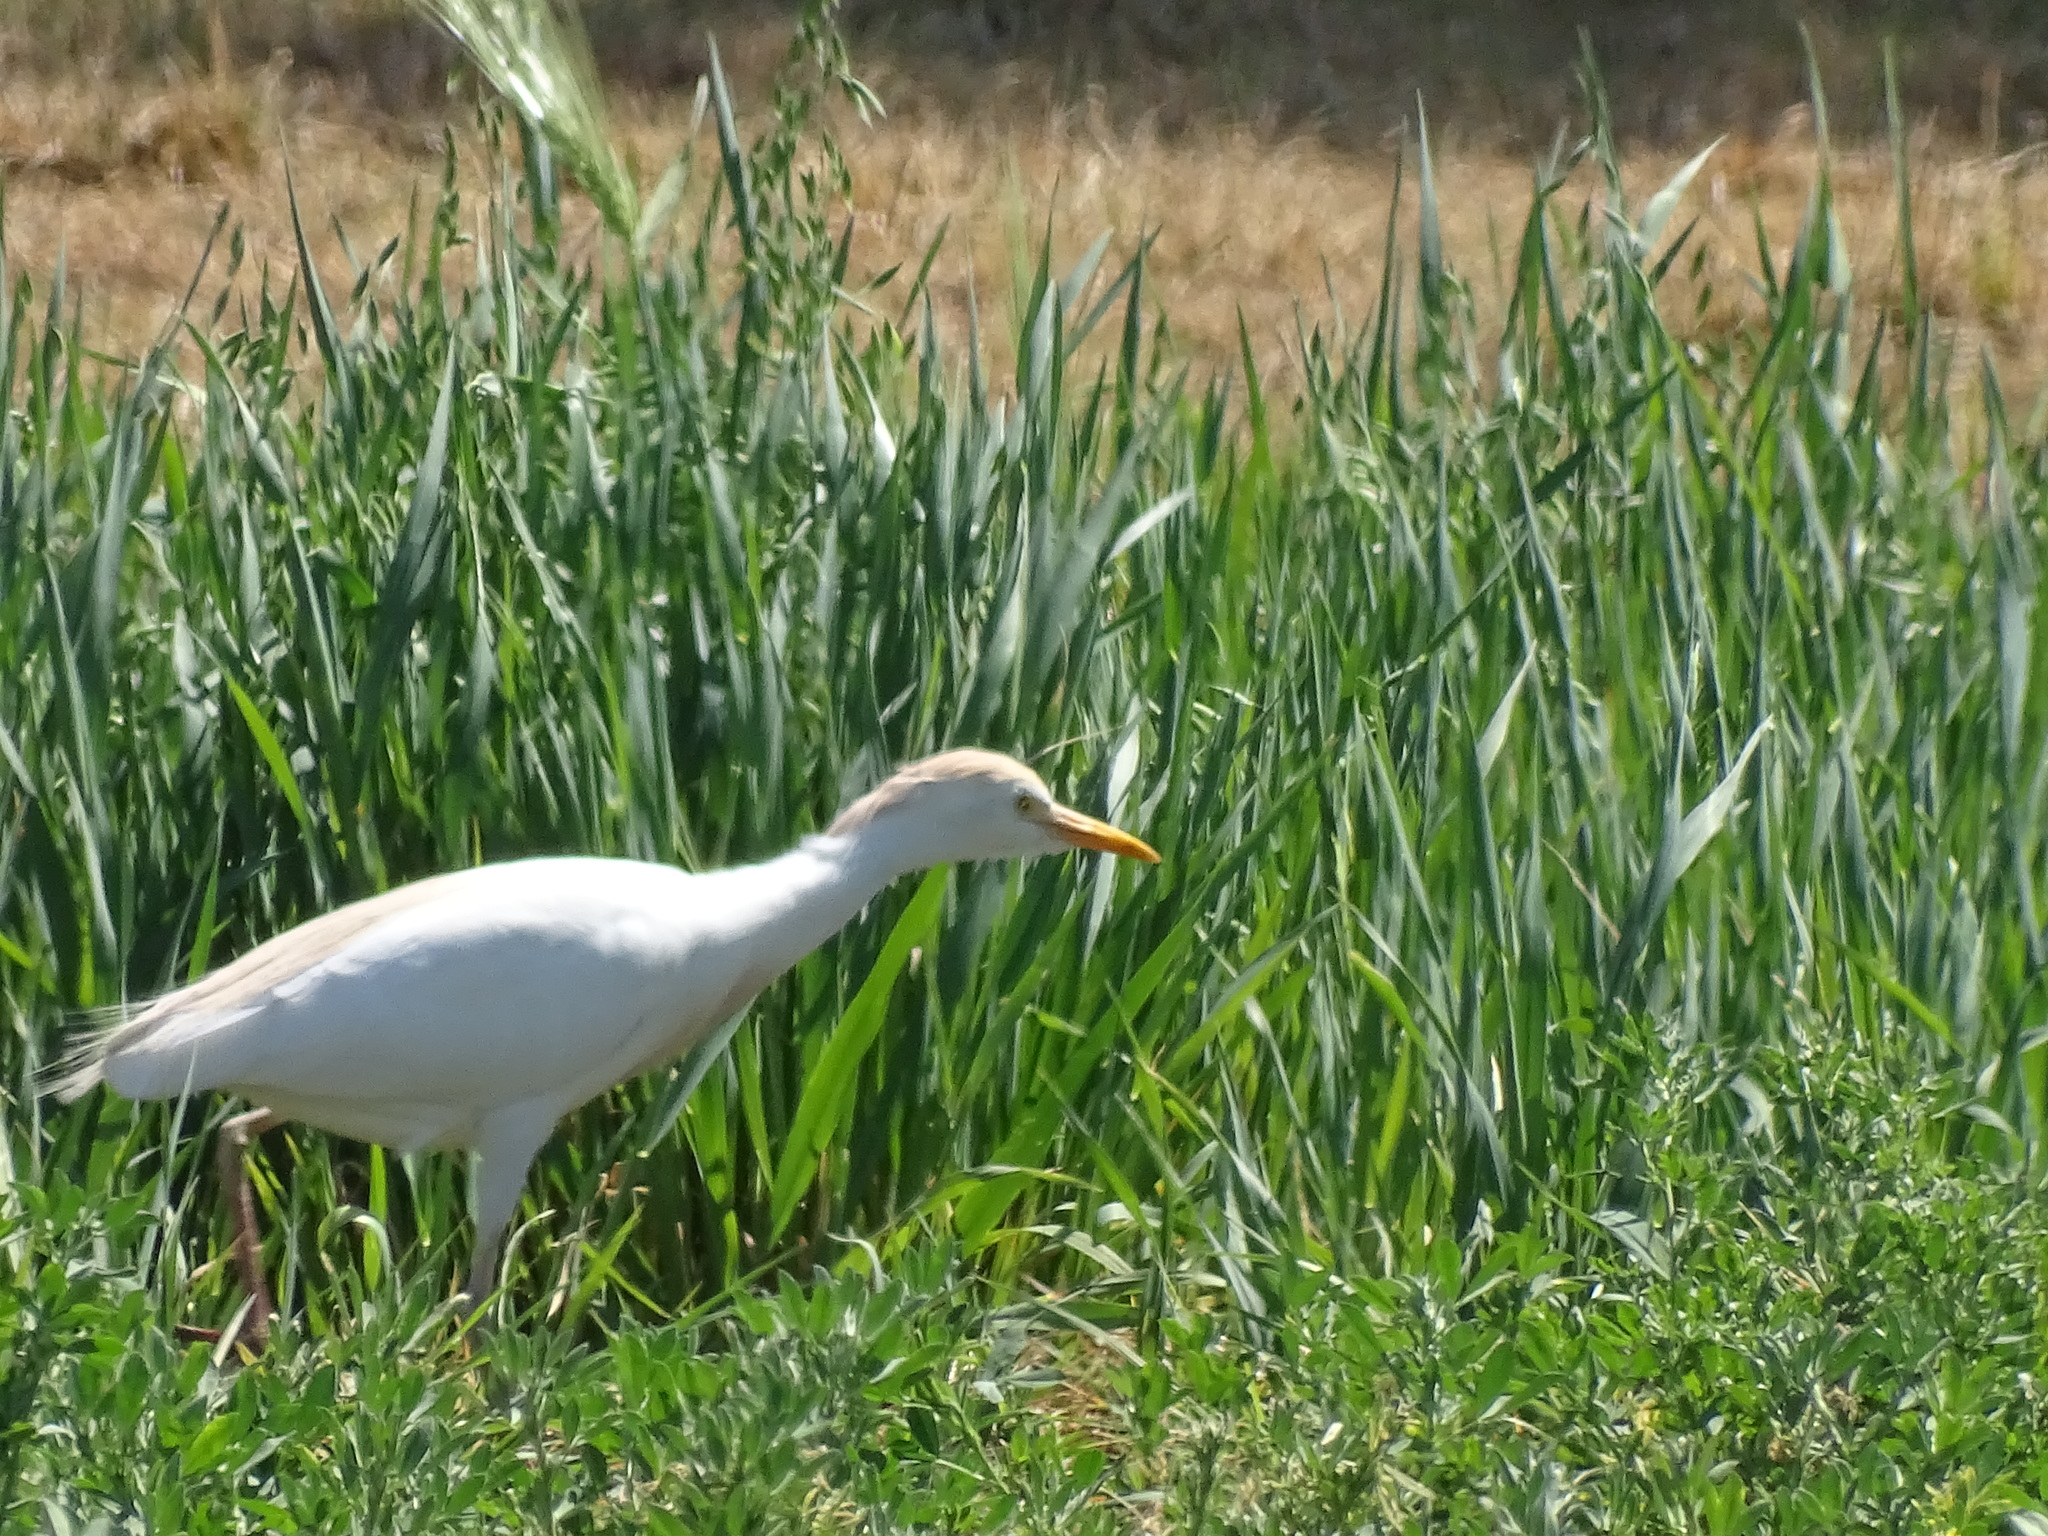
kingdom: Animalia
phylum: Chordata
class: Aves
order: Pelecaniformes
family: Ardeidae
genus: Bubulcus
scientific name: Bubulcus ibis
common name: Cattle egret
